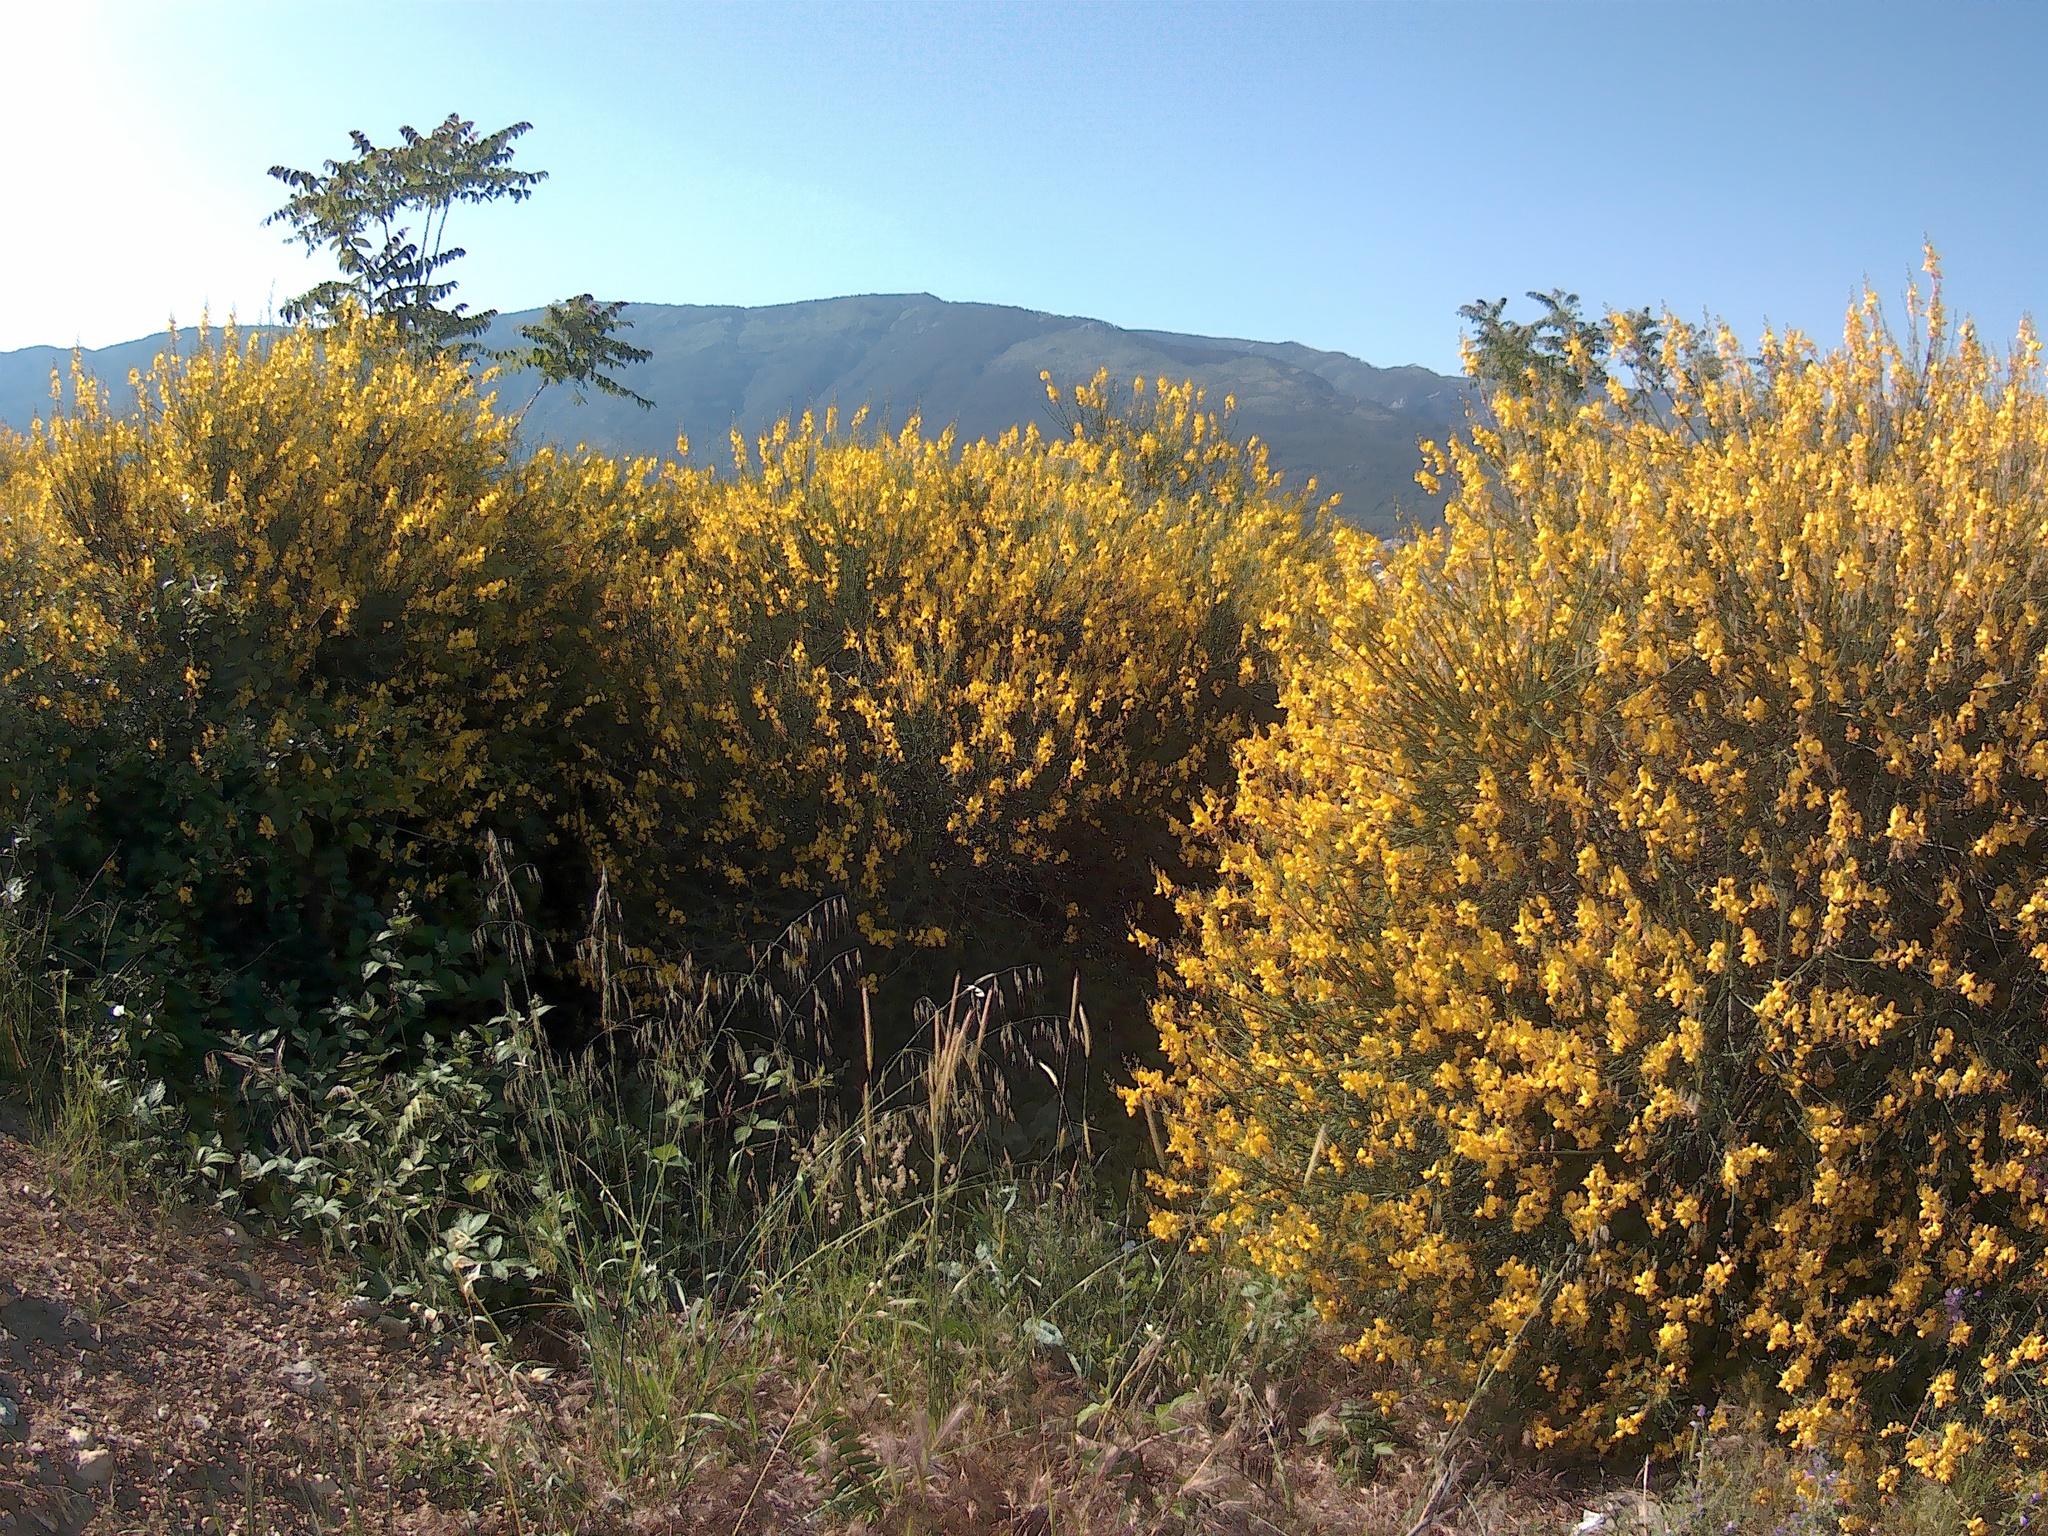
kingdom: Plantae
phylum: Tracheophyta
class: Magnoliopsida
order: Fabales
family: Fabaceae
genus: Spartium
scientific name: Spartium junceum
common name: Spanish broom
